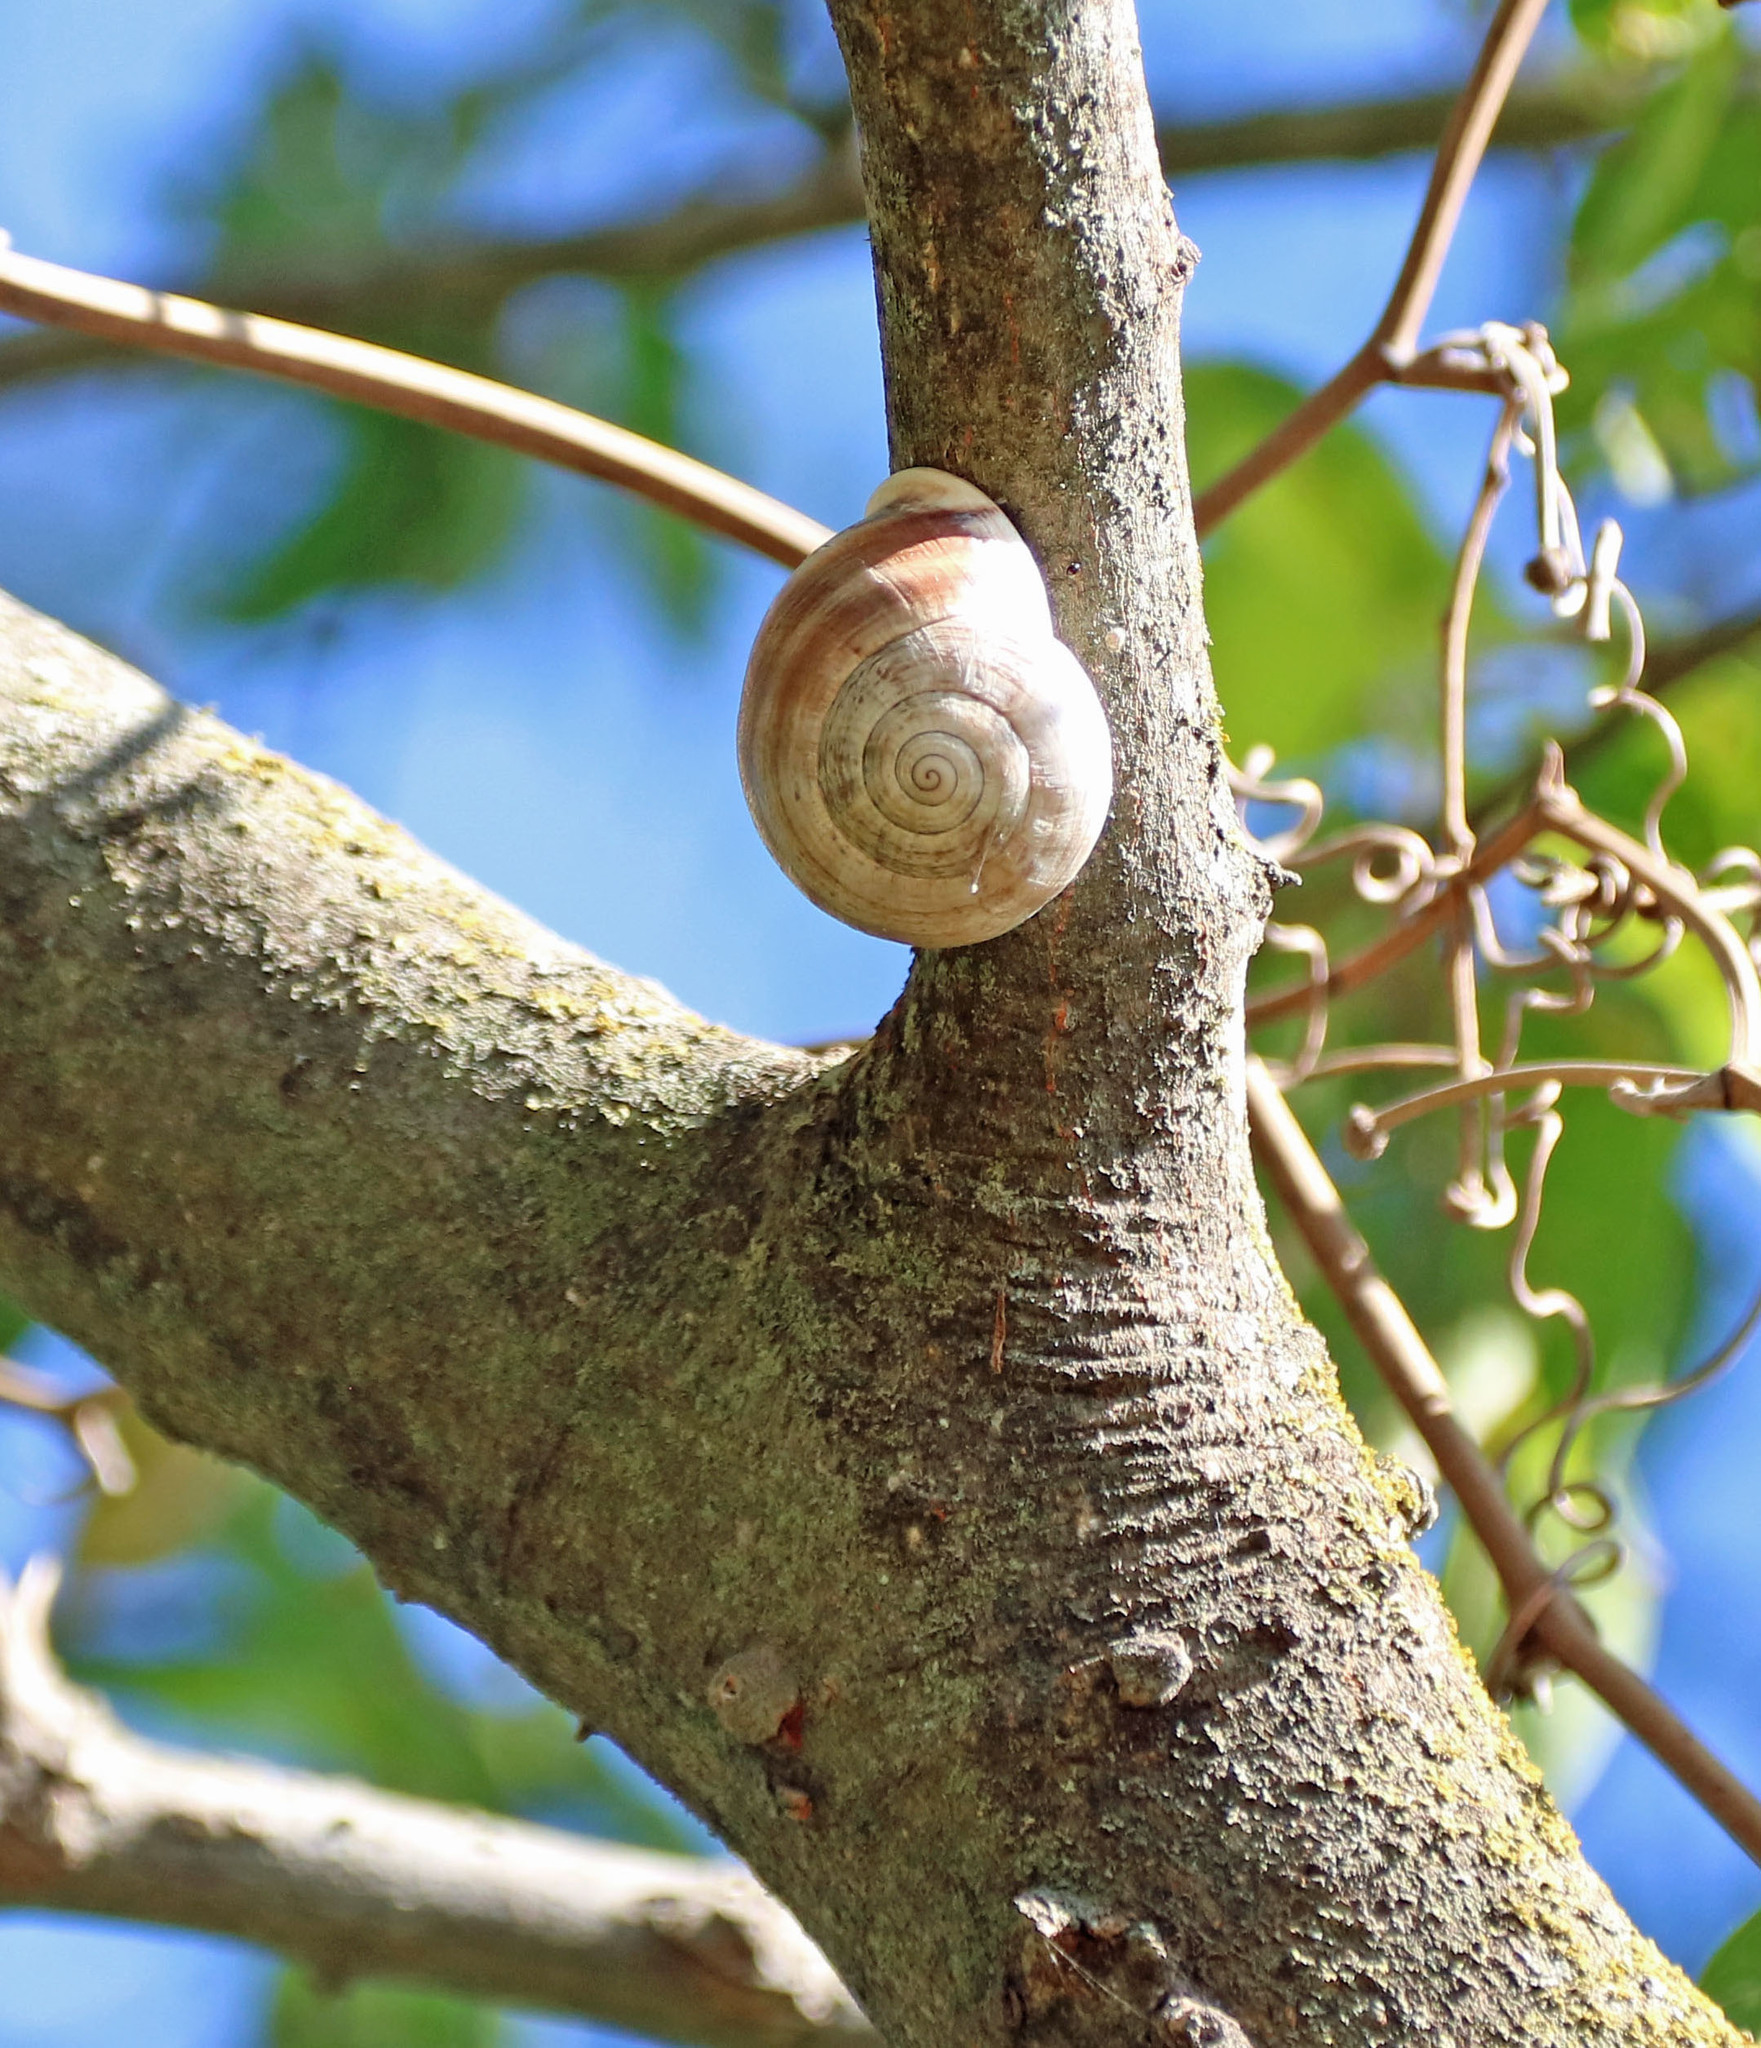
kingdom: Animalia
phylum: Mollusca
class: Gastropoda
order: Stylommatophora
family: Helicidae
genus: Otala
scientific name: Otala lactea
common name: Milk snail
